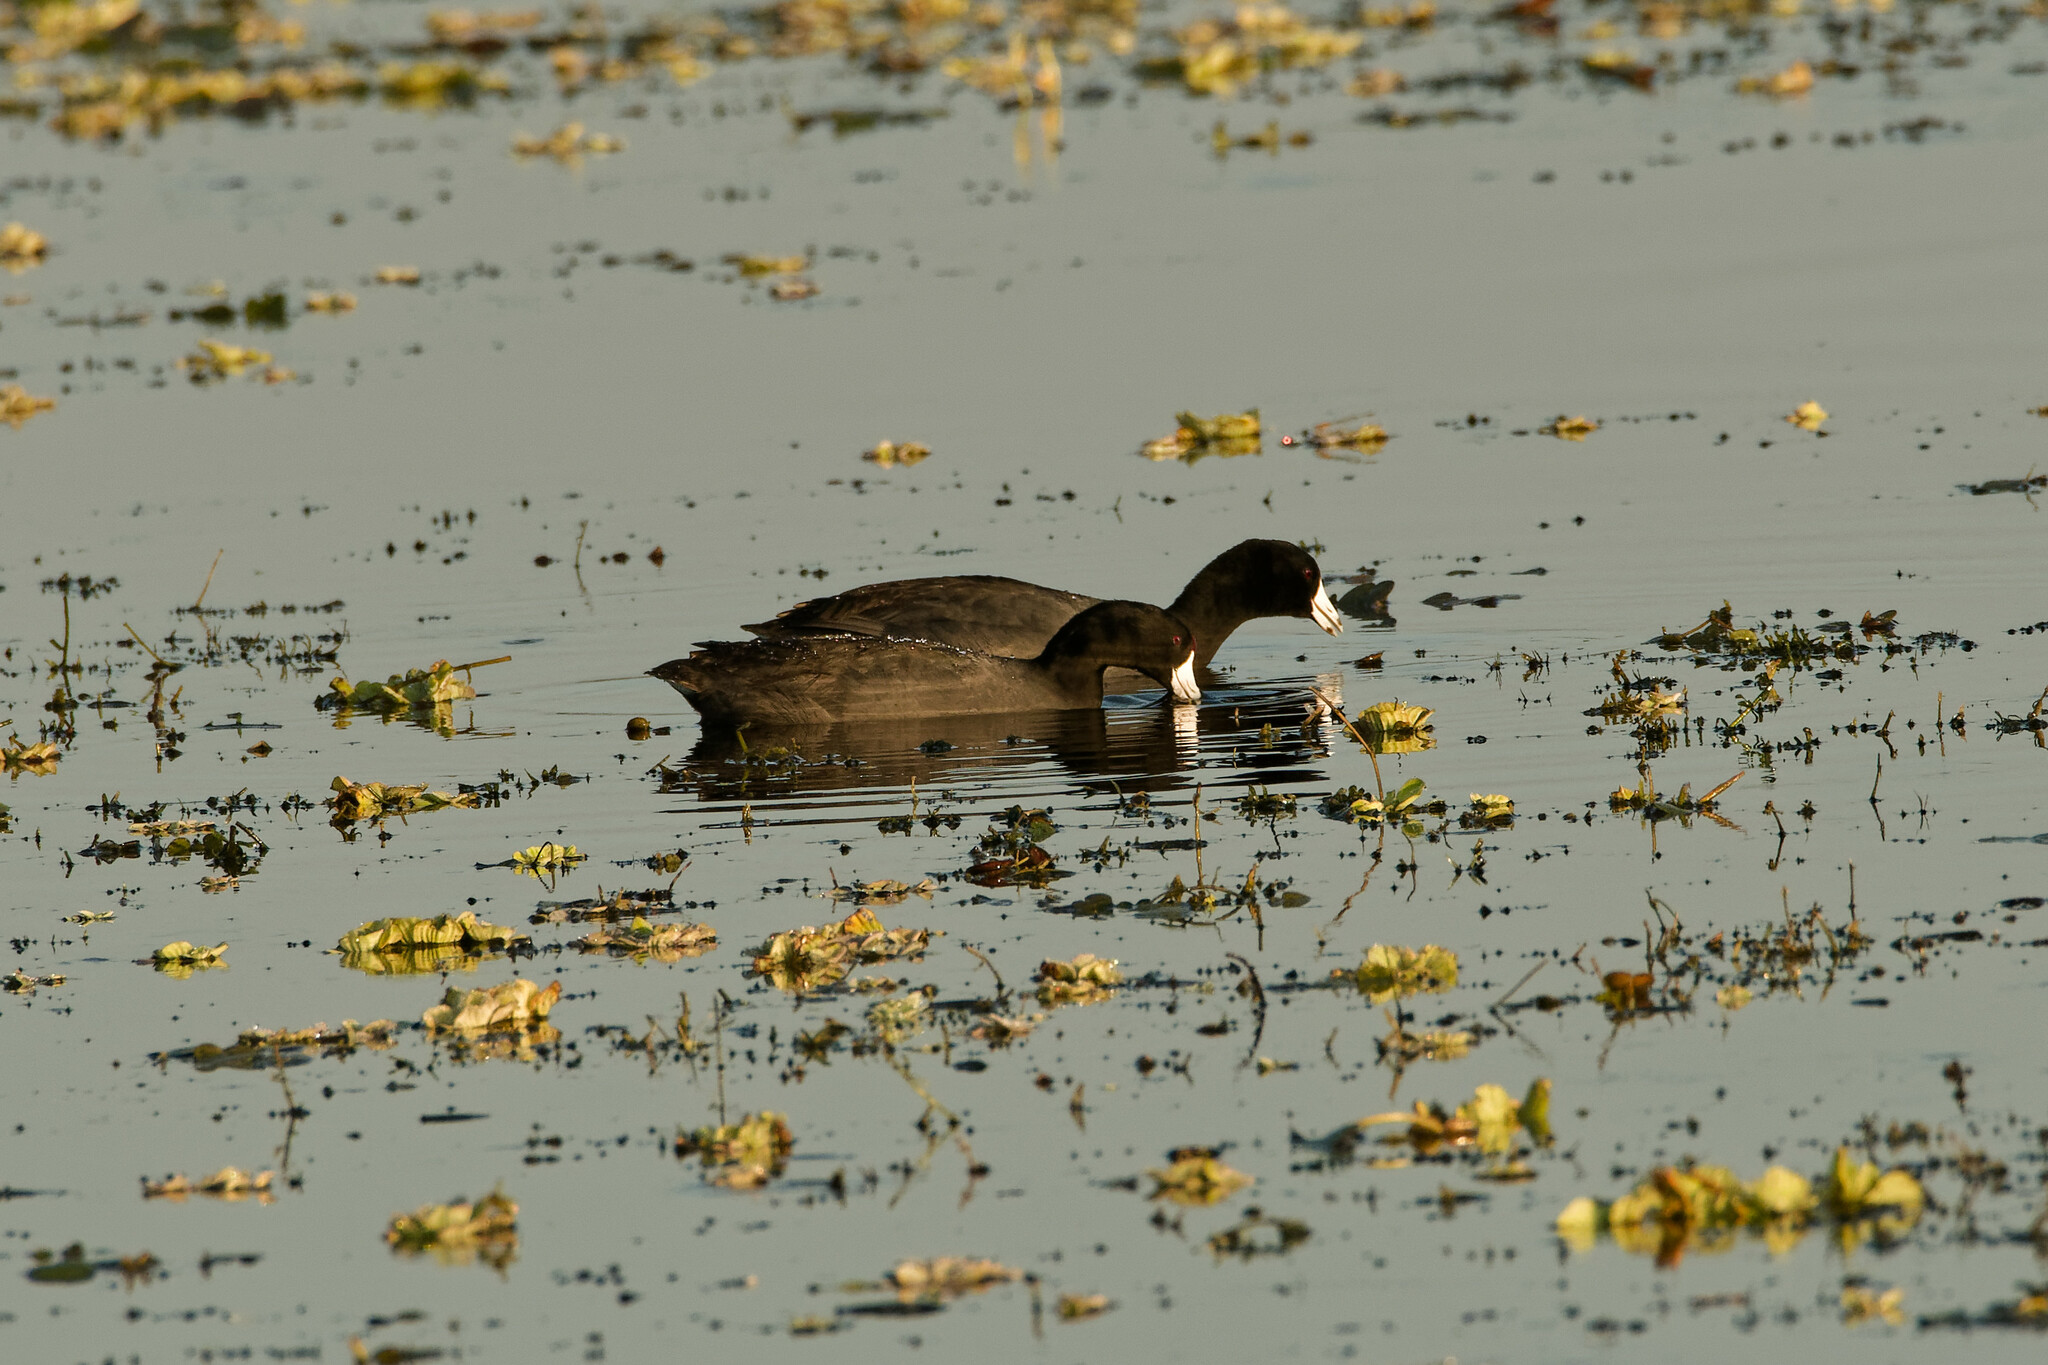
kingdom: Animalia
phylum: Chordata
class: Aves
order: Gruiformes
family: Rallidae
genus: Fulica
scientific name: Fulica americana
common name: American coot
